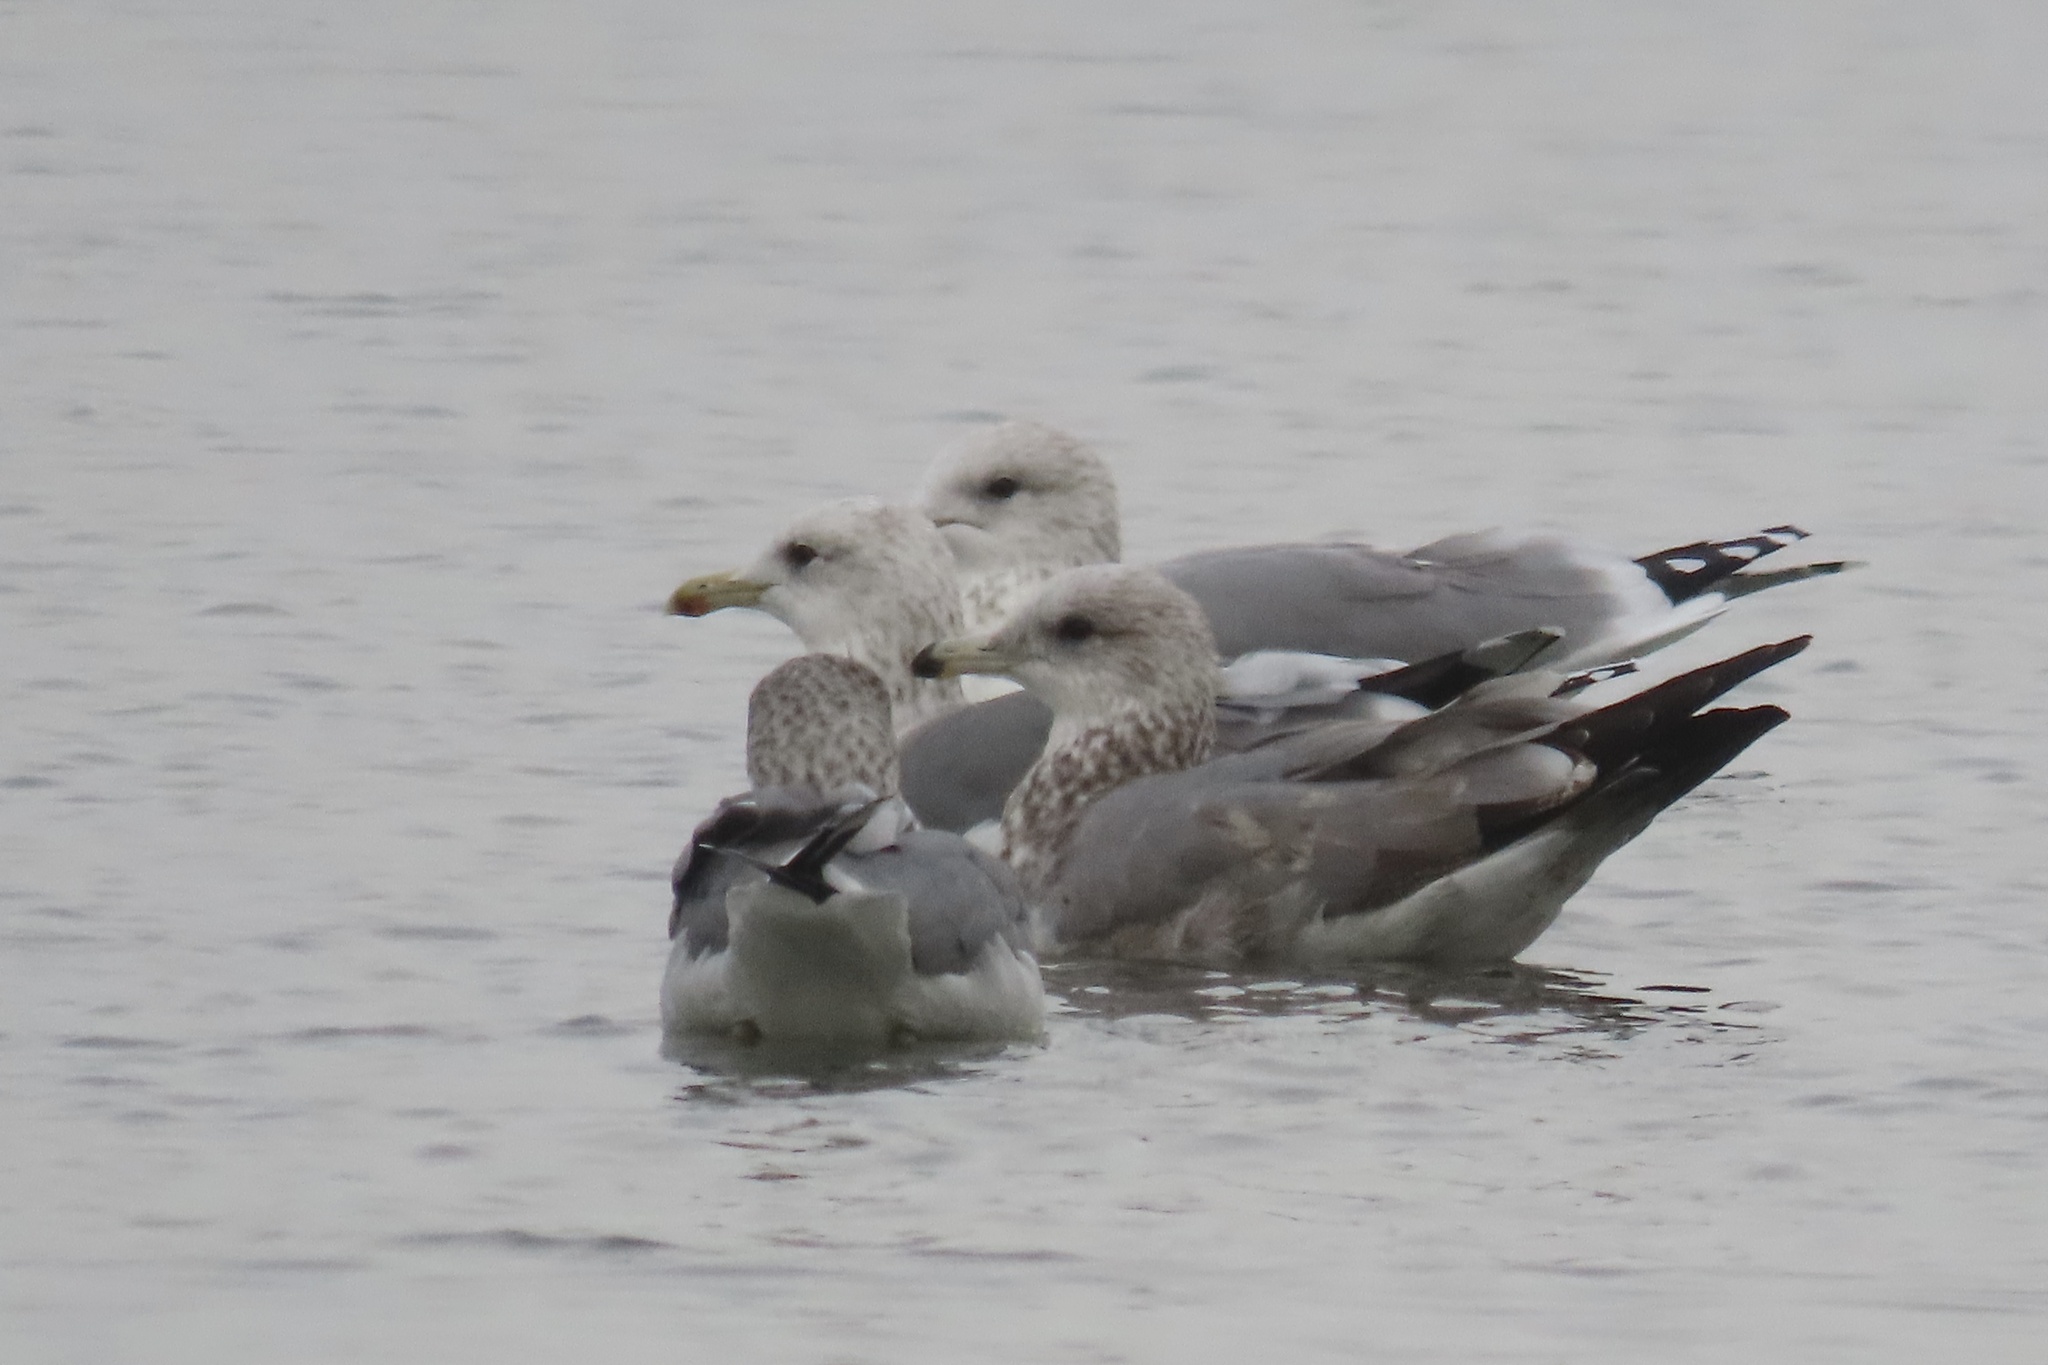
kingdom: Animalia
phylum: Chordata
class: Aves
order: Charadriiformes
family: Laridae
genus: Larus
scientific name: Larus californicus
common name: California gull
